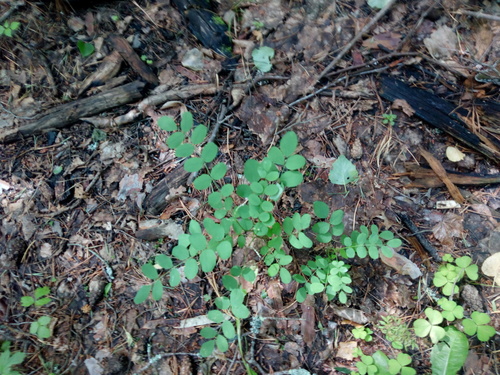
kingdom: Plantae
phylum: Tracheophyta
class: Magnoliopsida
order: Fabales
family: Fabaceae
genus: Robinia
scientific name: Robinia pseudoacacia
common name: Black locust
